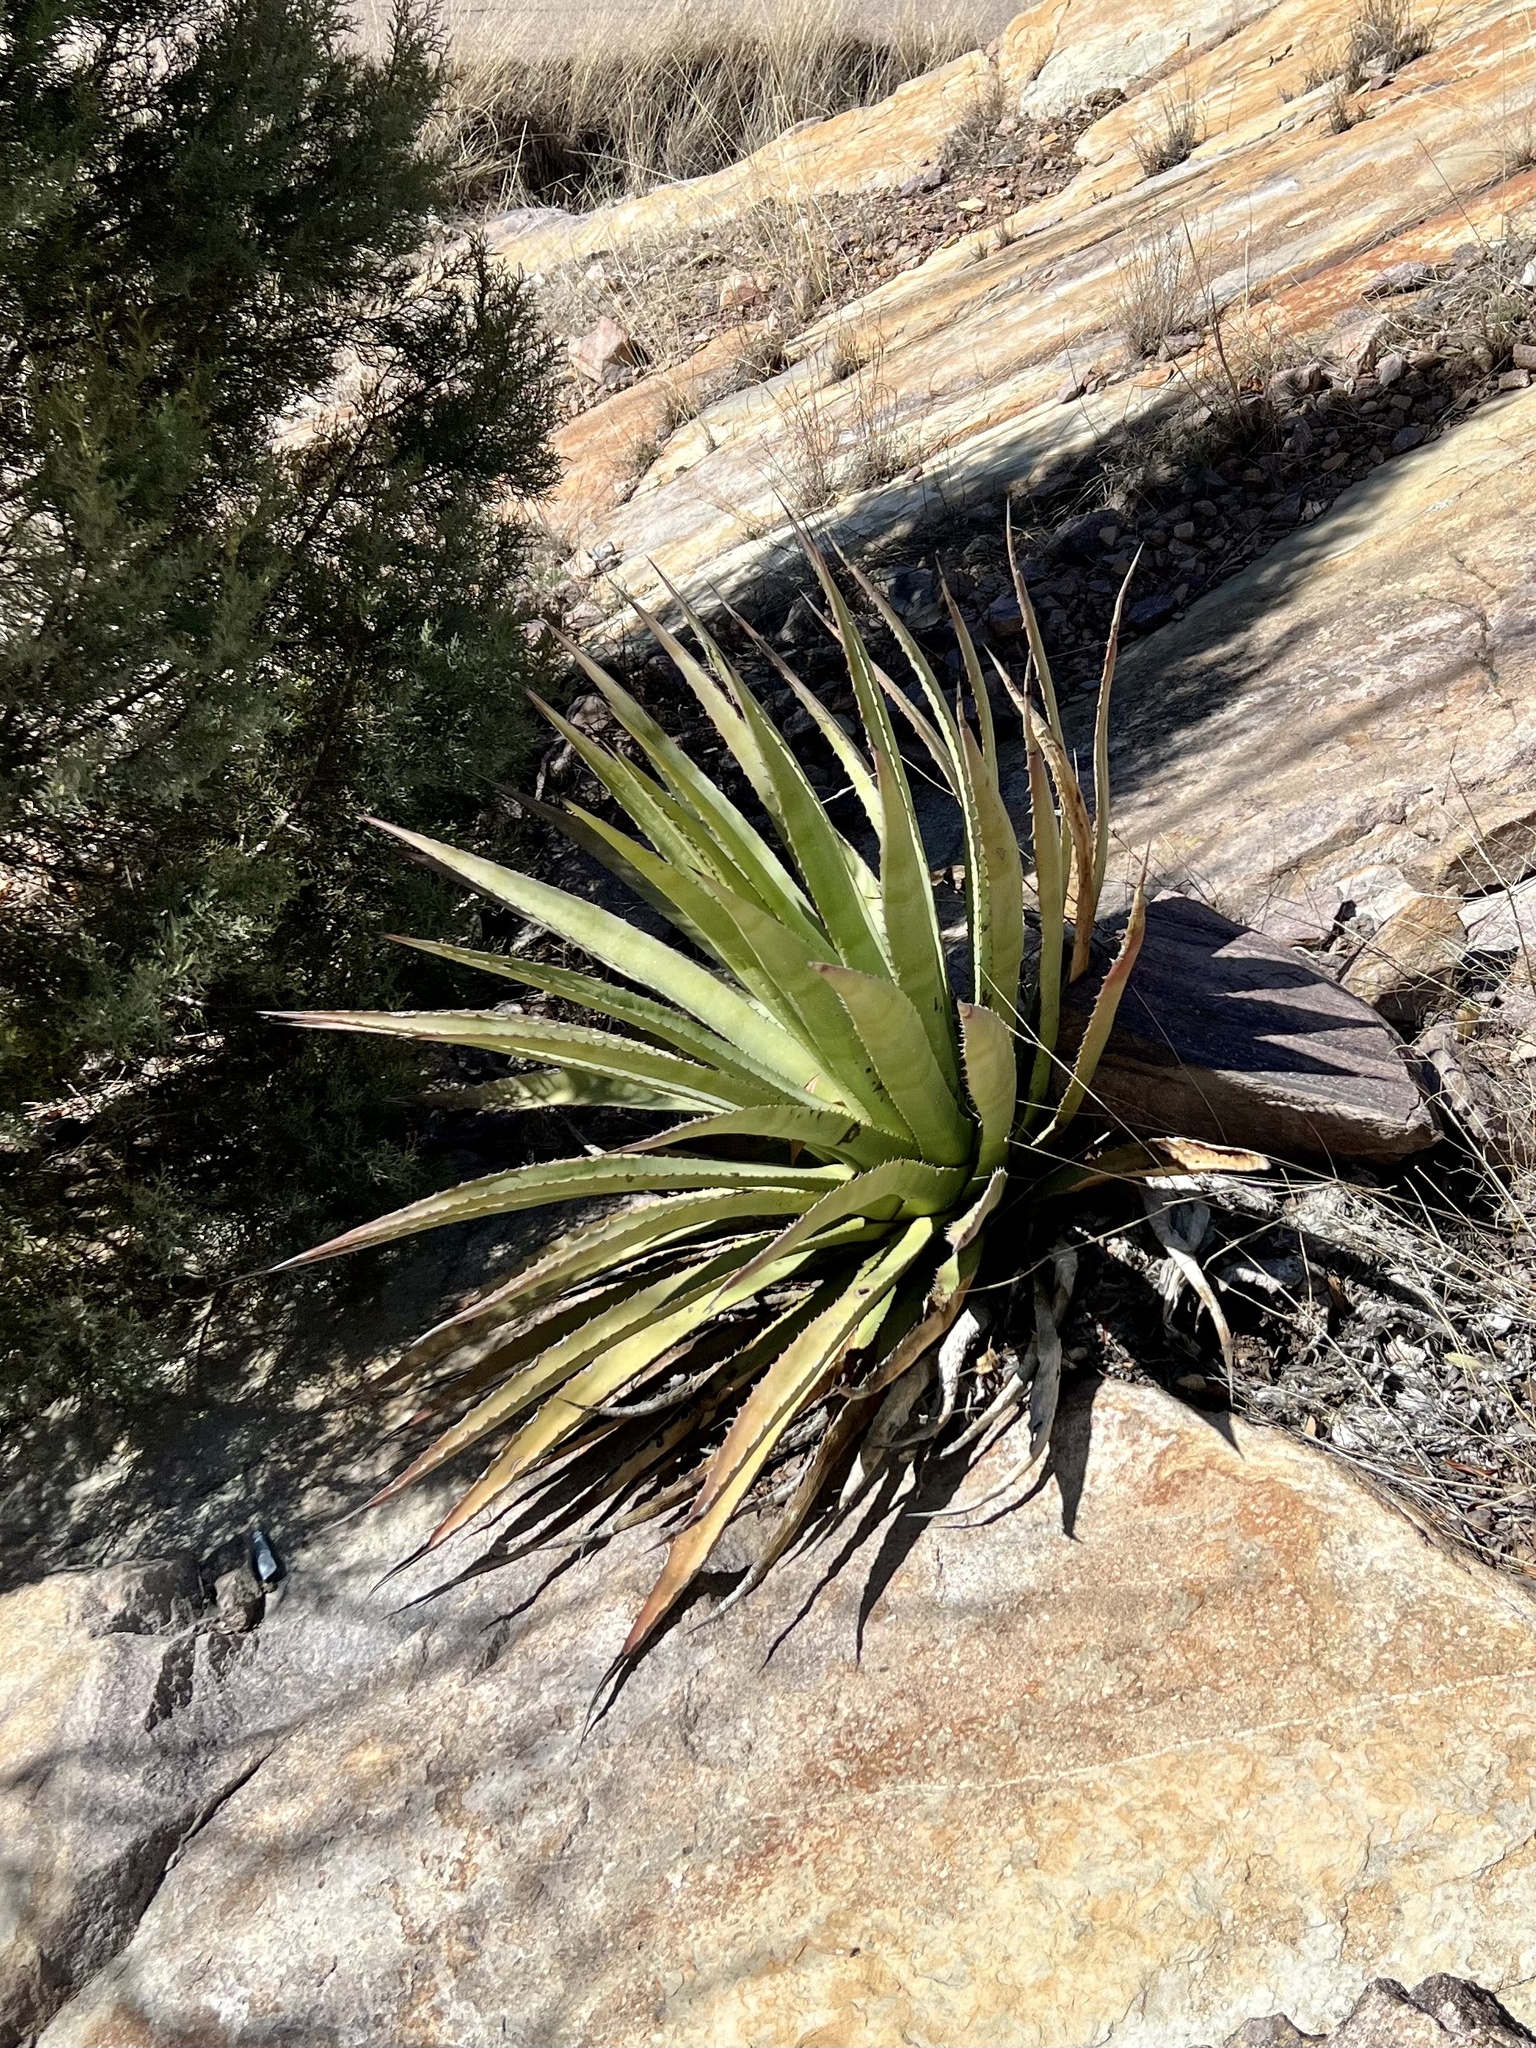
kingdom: Plantae
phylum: Tracheophyta
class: Liliopsida
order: Asparagales
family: Asparagaceae
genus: Agave
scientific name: Agave palmeri
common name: Palmer agave
